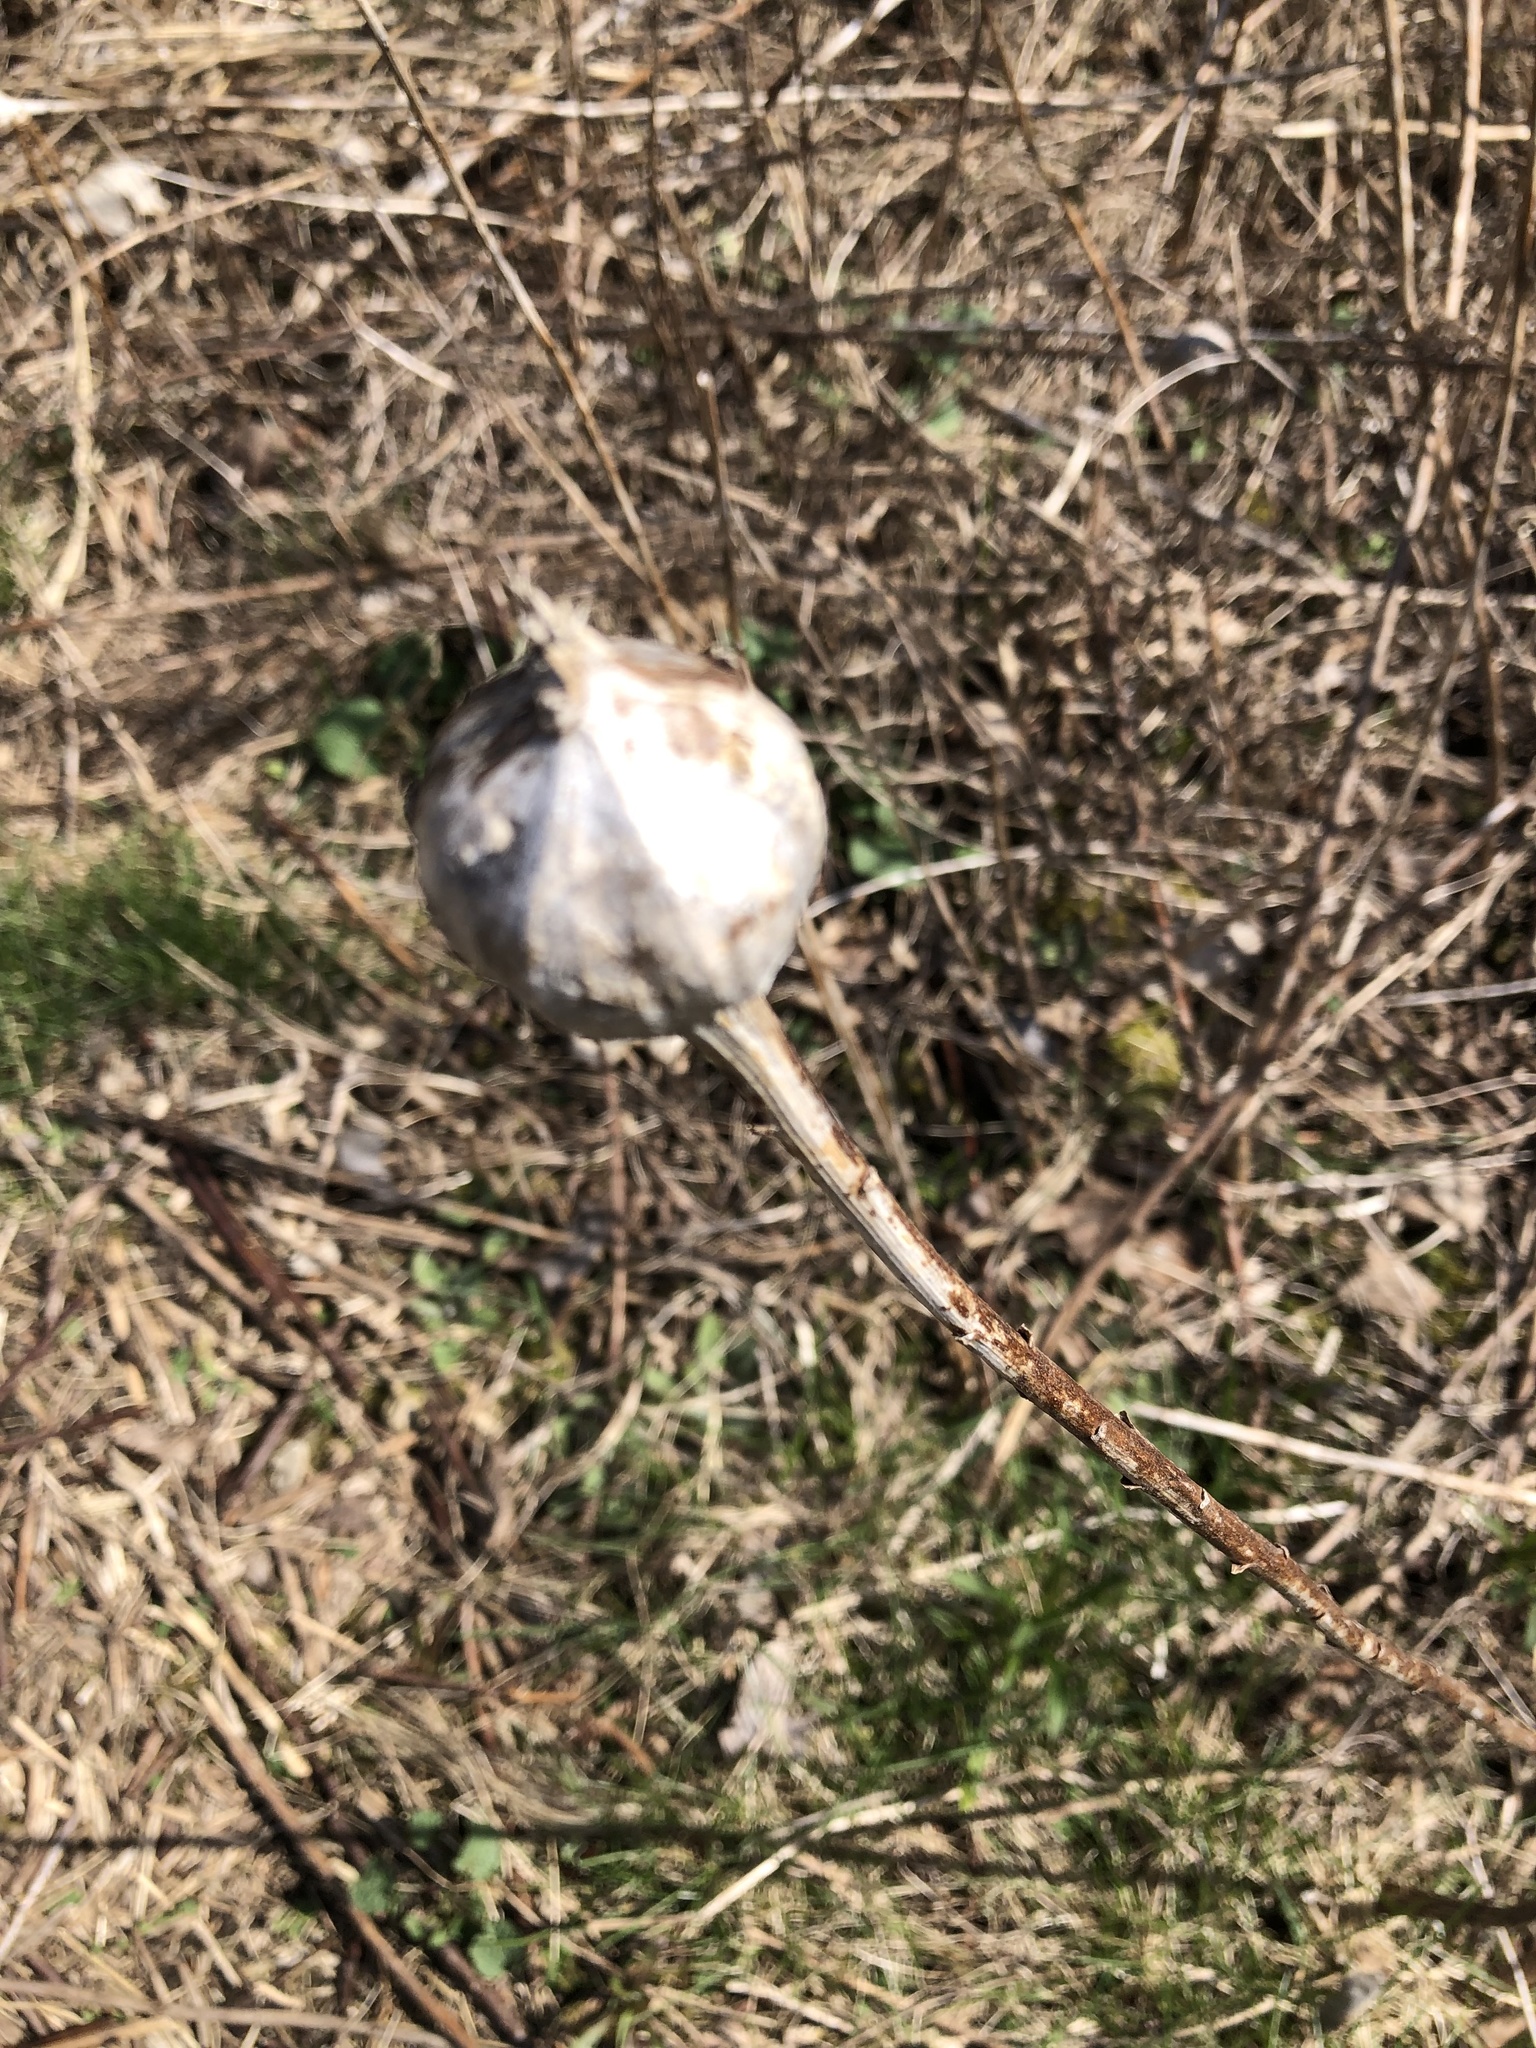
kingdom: Animalia
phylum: Arthropoda
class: Insecta
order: Diptera
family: Tephritidae
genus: Eurosta
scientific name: Eurosta solidaginis
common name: Goldenrod gall fly
